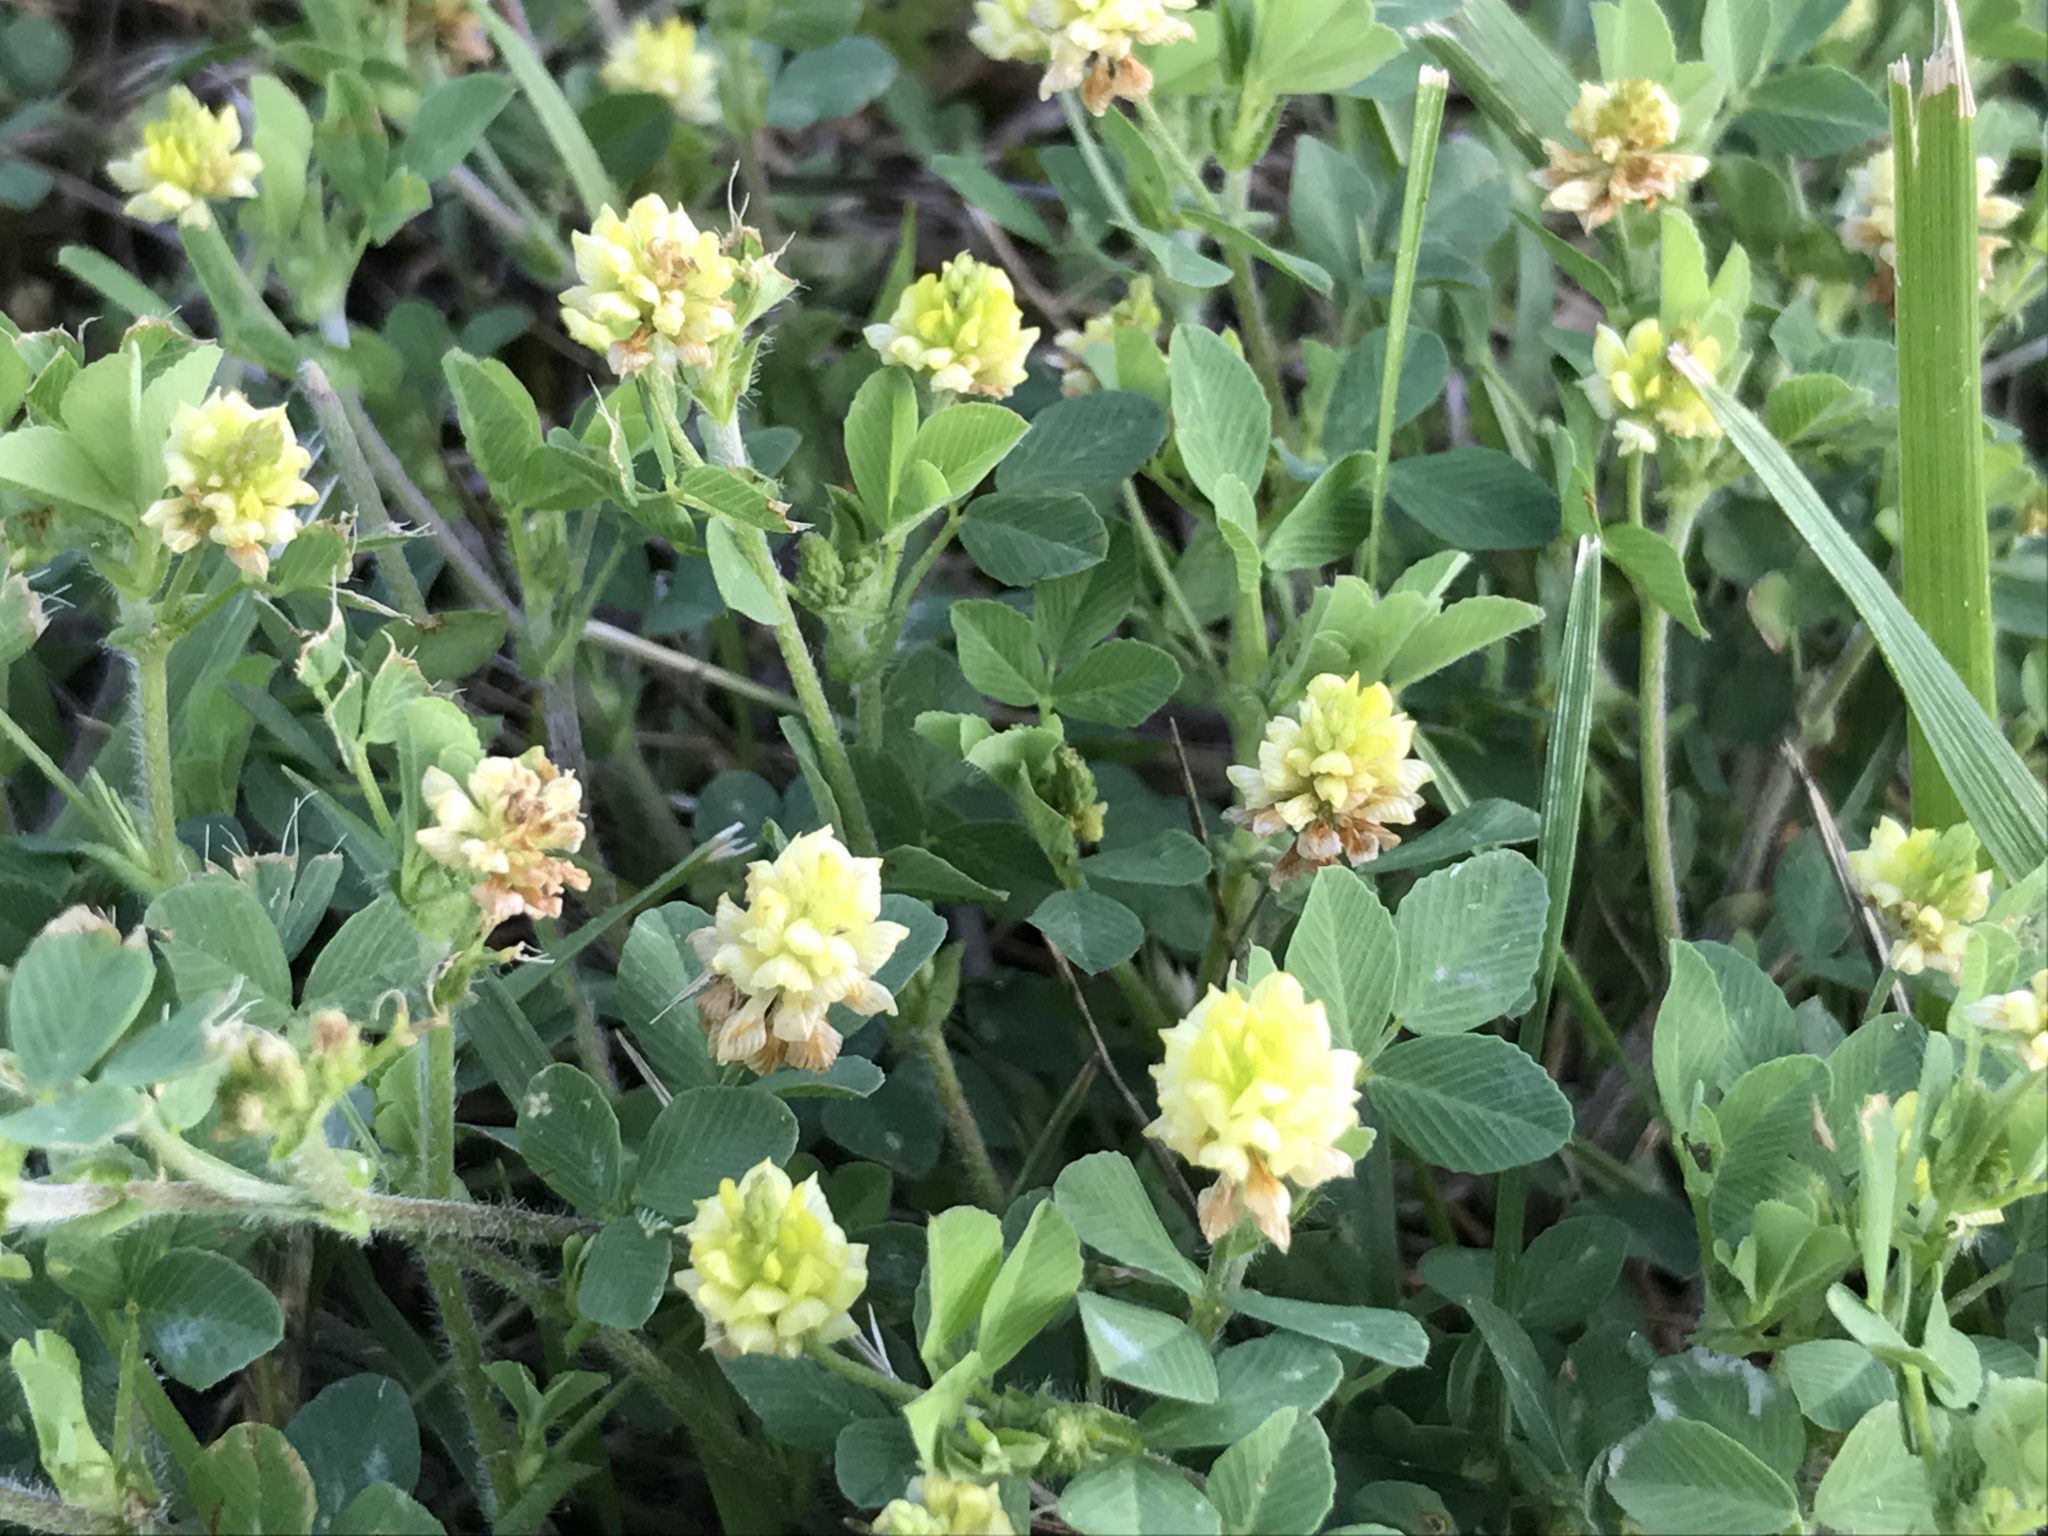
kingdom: Plantae
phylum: Tracheophyta
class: Magnoliopsida
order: Fabales
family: Fabaceae
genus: Trifolium
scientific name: Trifolium campestre
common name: Field clover
